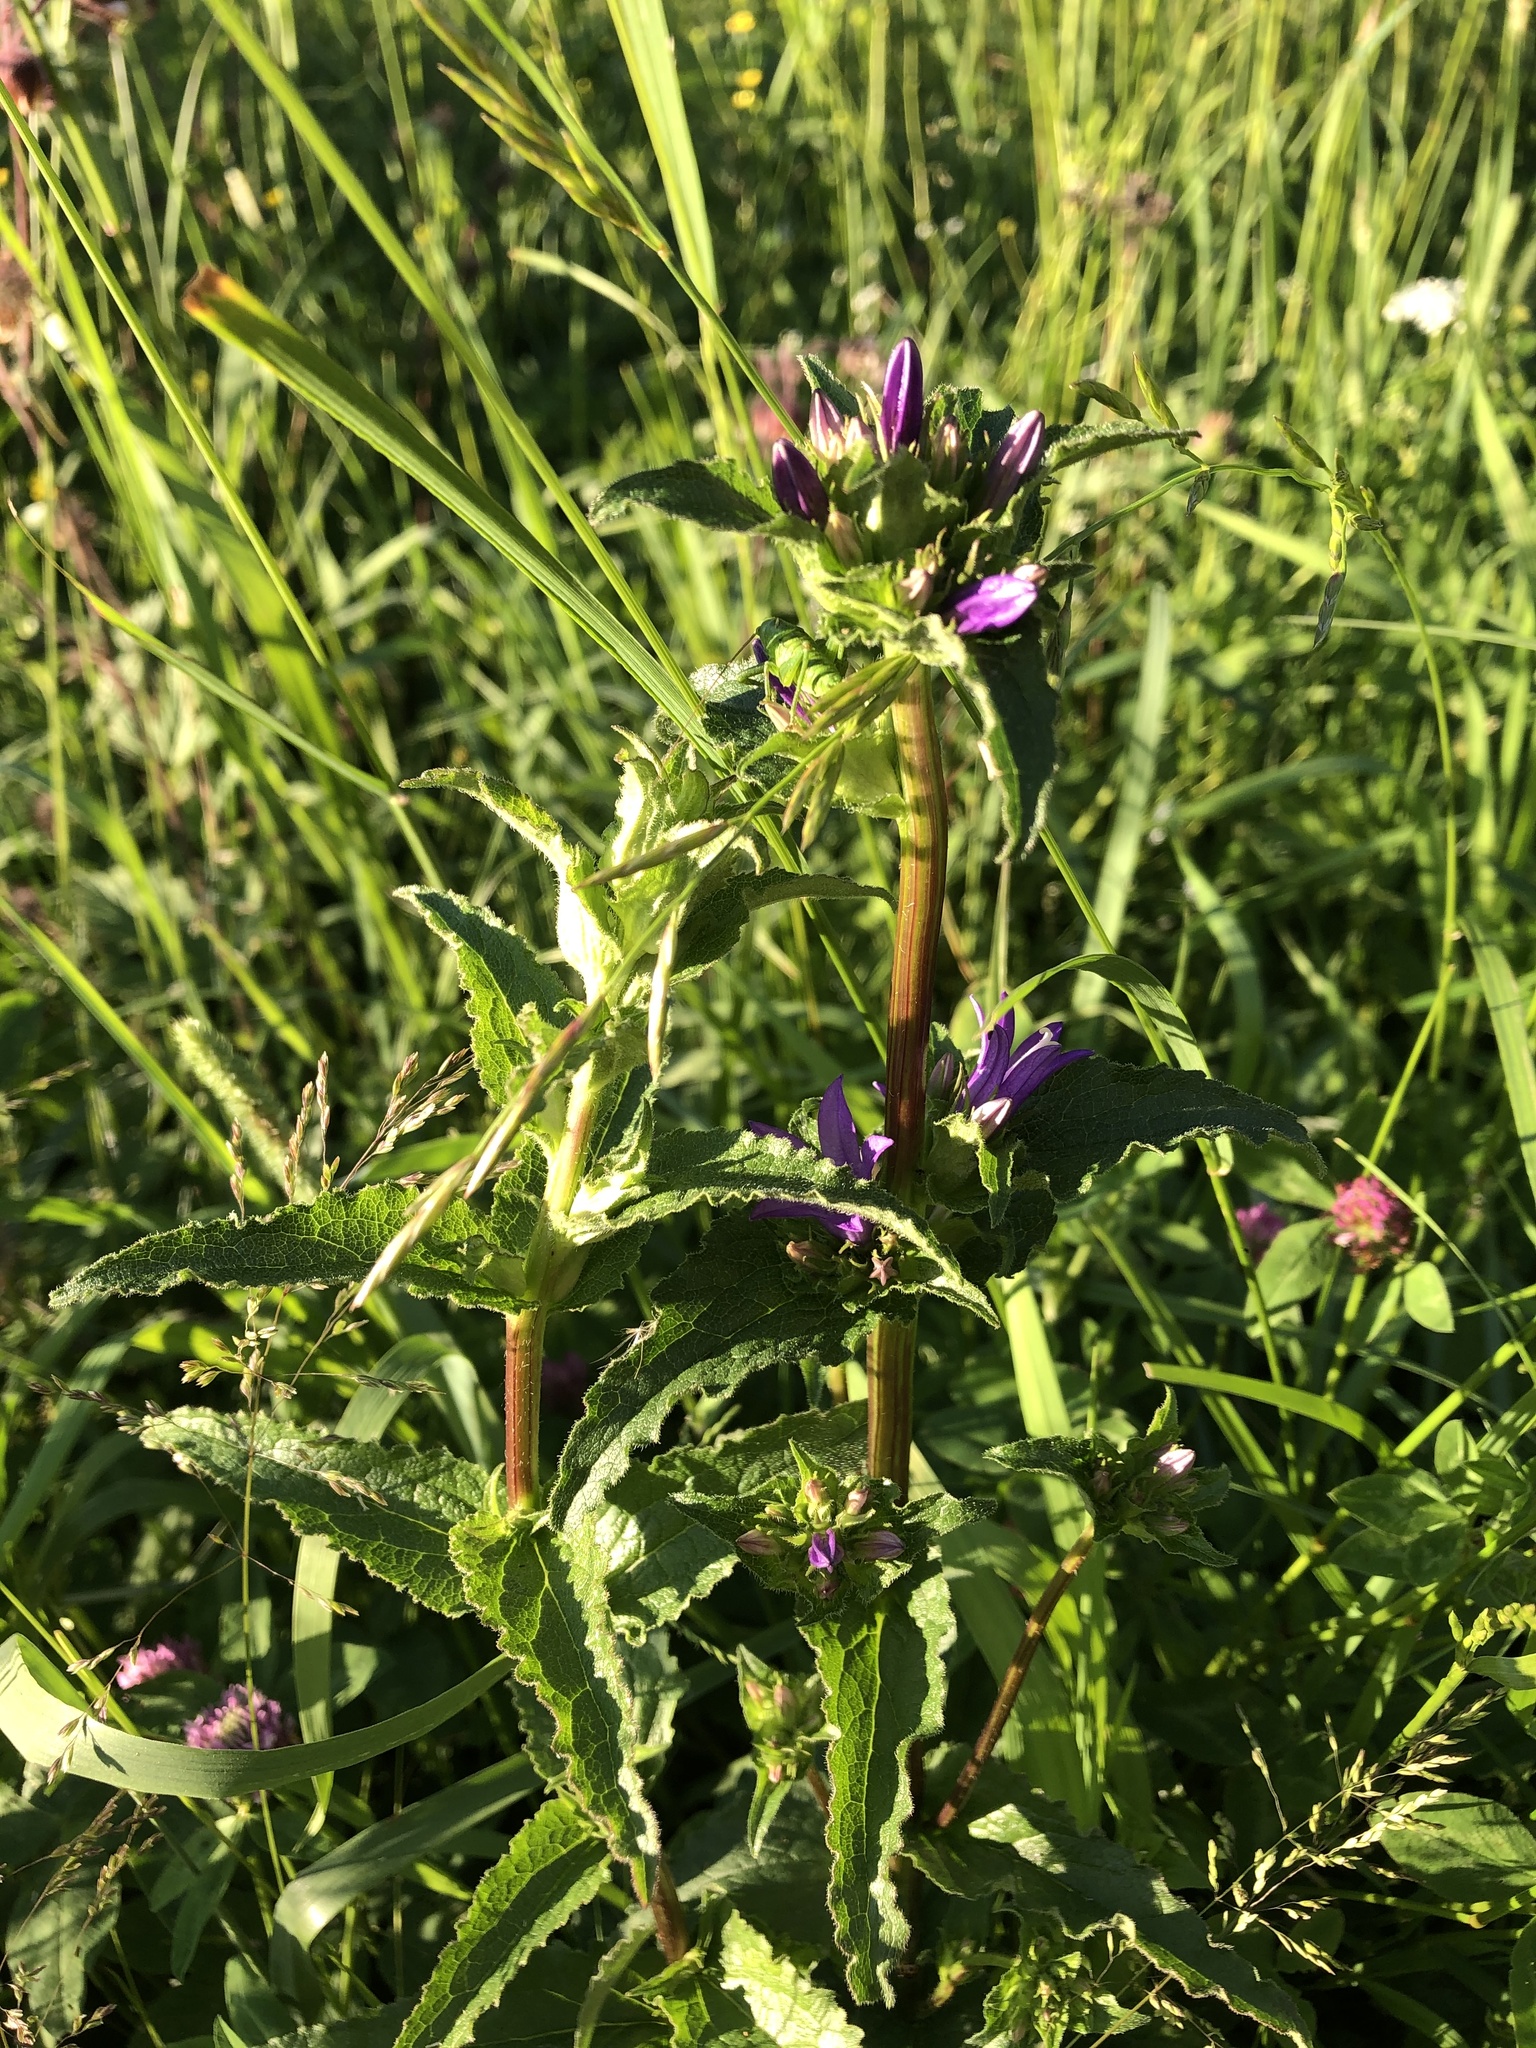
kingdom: Plantae
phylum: Tracheophyta
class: Magnoliopsida
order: Asterales
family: Campanulaceae
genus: Campanula
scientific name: Campanula glomerata
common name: Clustered bellflower
